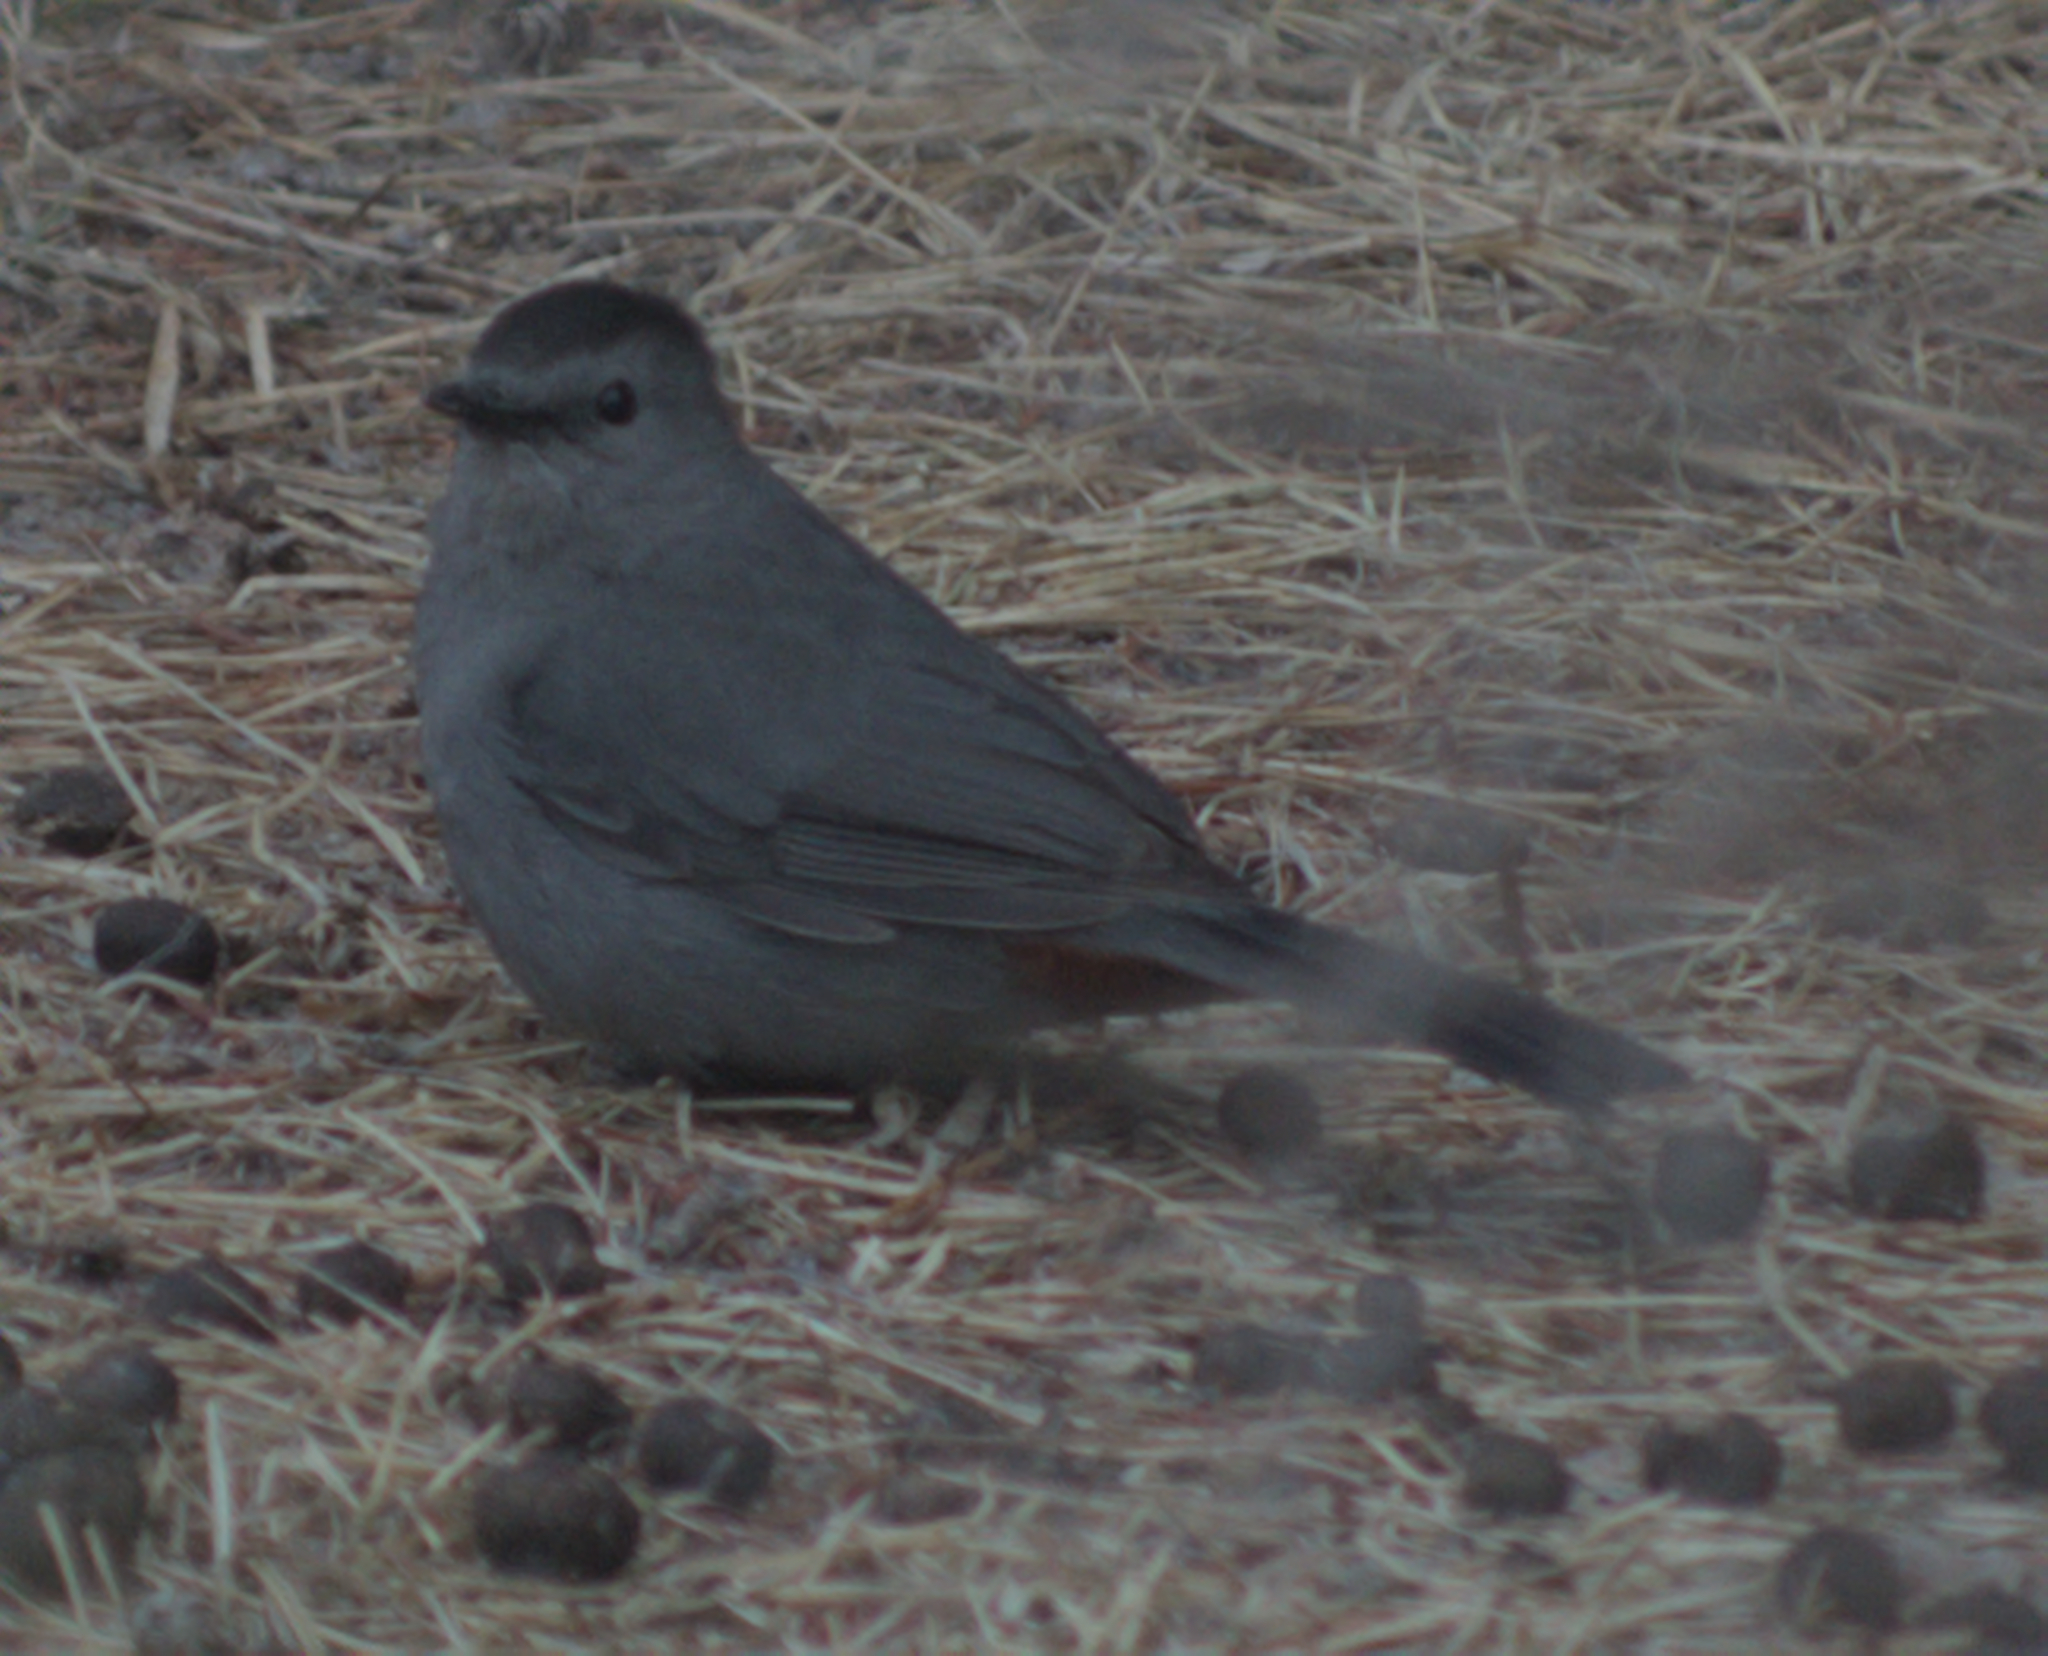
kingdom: Animalia
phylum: Chordata
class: Aves
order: Passeriformes
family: Mimidae
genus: Dumetella
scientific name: Dumetella carolinensis
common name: Gray catbird
